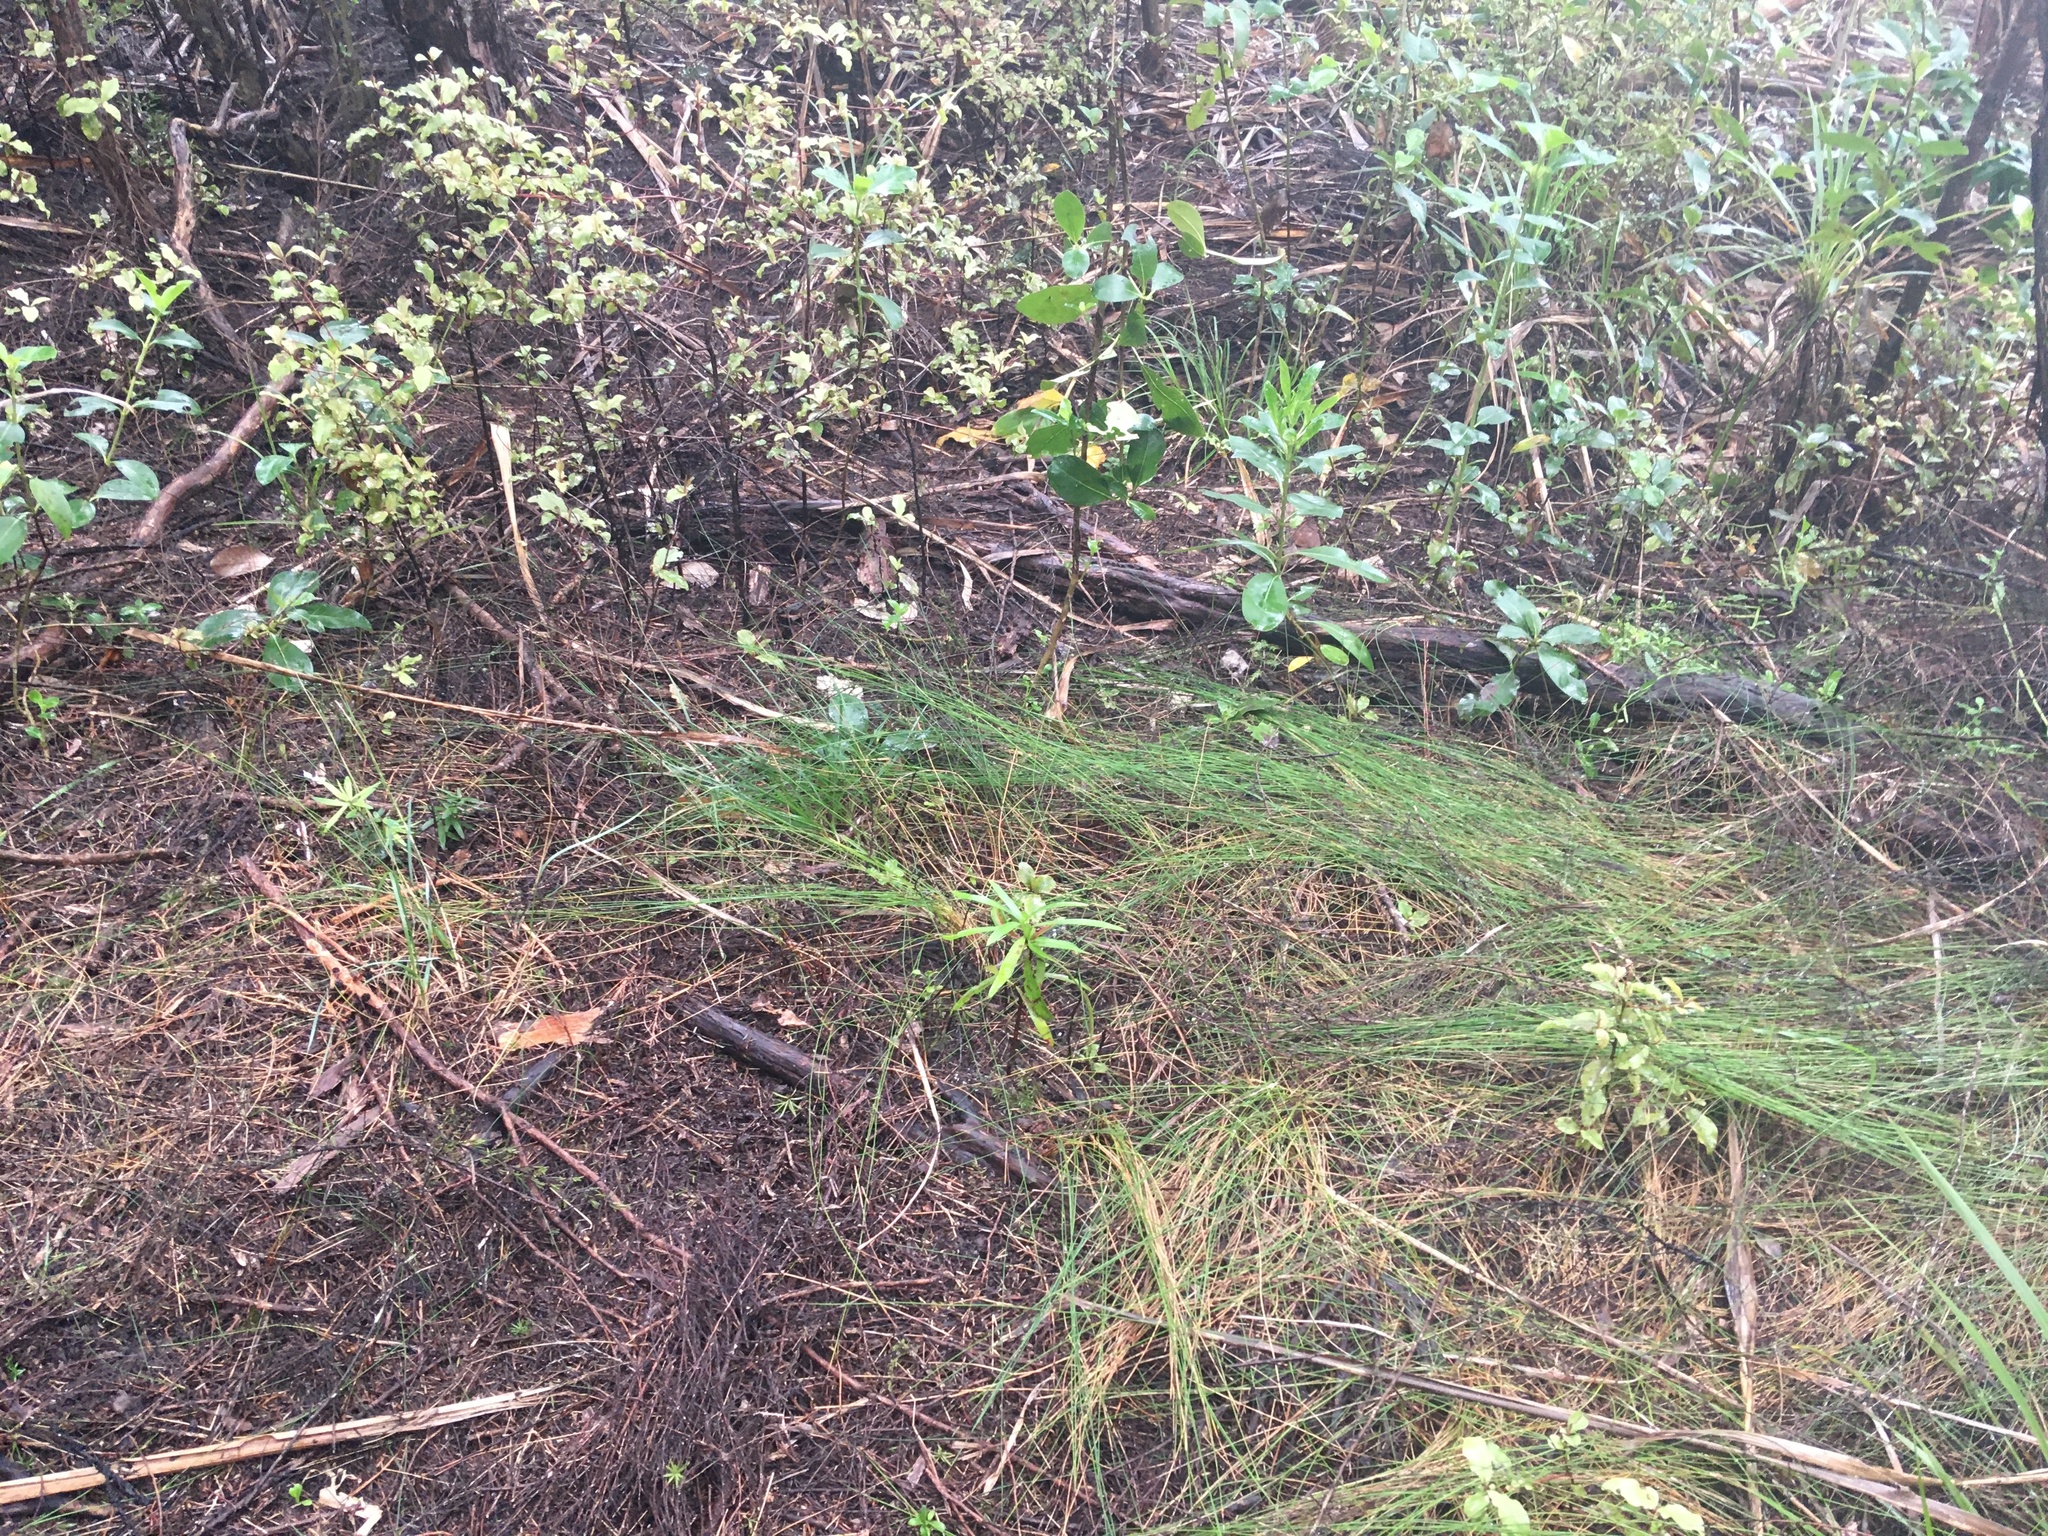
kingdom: Plantae
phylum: Tracheophyta
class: Magnoliopsida
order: Ericales
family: Primulaceae
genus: Myrsine
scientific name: Myrsine australis
